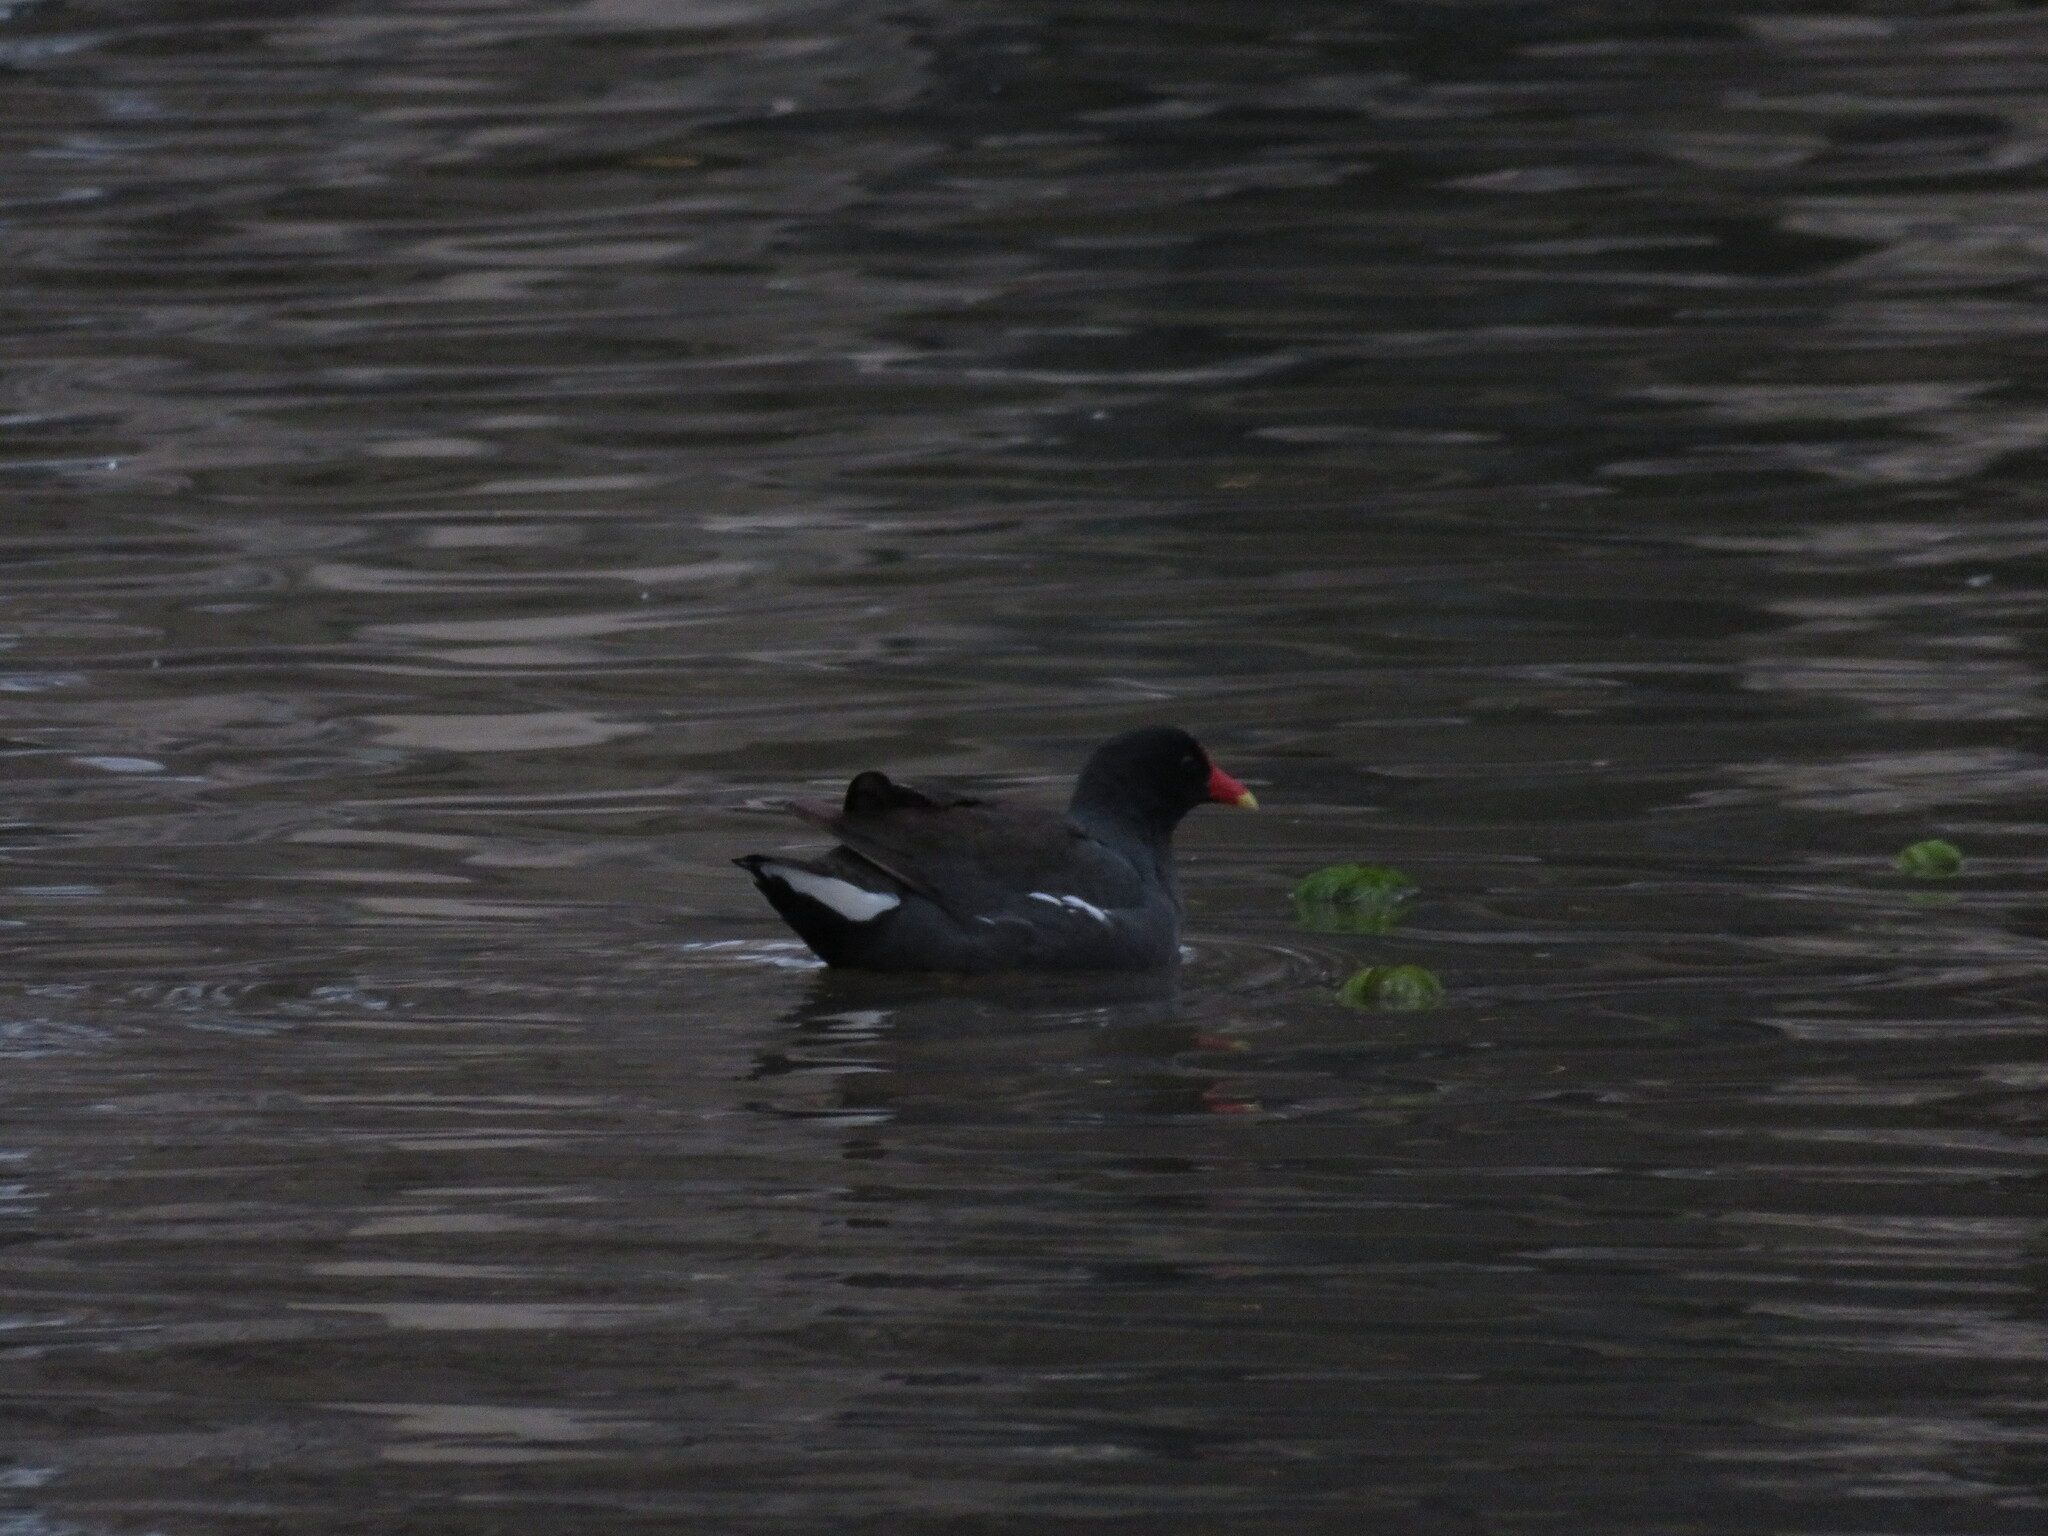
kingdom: Animalia
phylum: Chordata
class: Aves
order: Gruiformes
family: Rallidae
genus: Gallinula
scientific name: Gallinula chloropus
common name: Common moorhen
